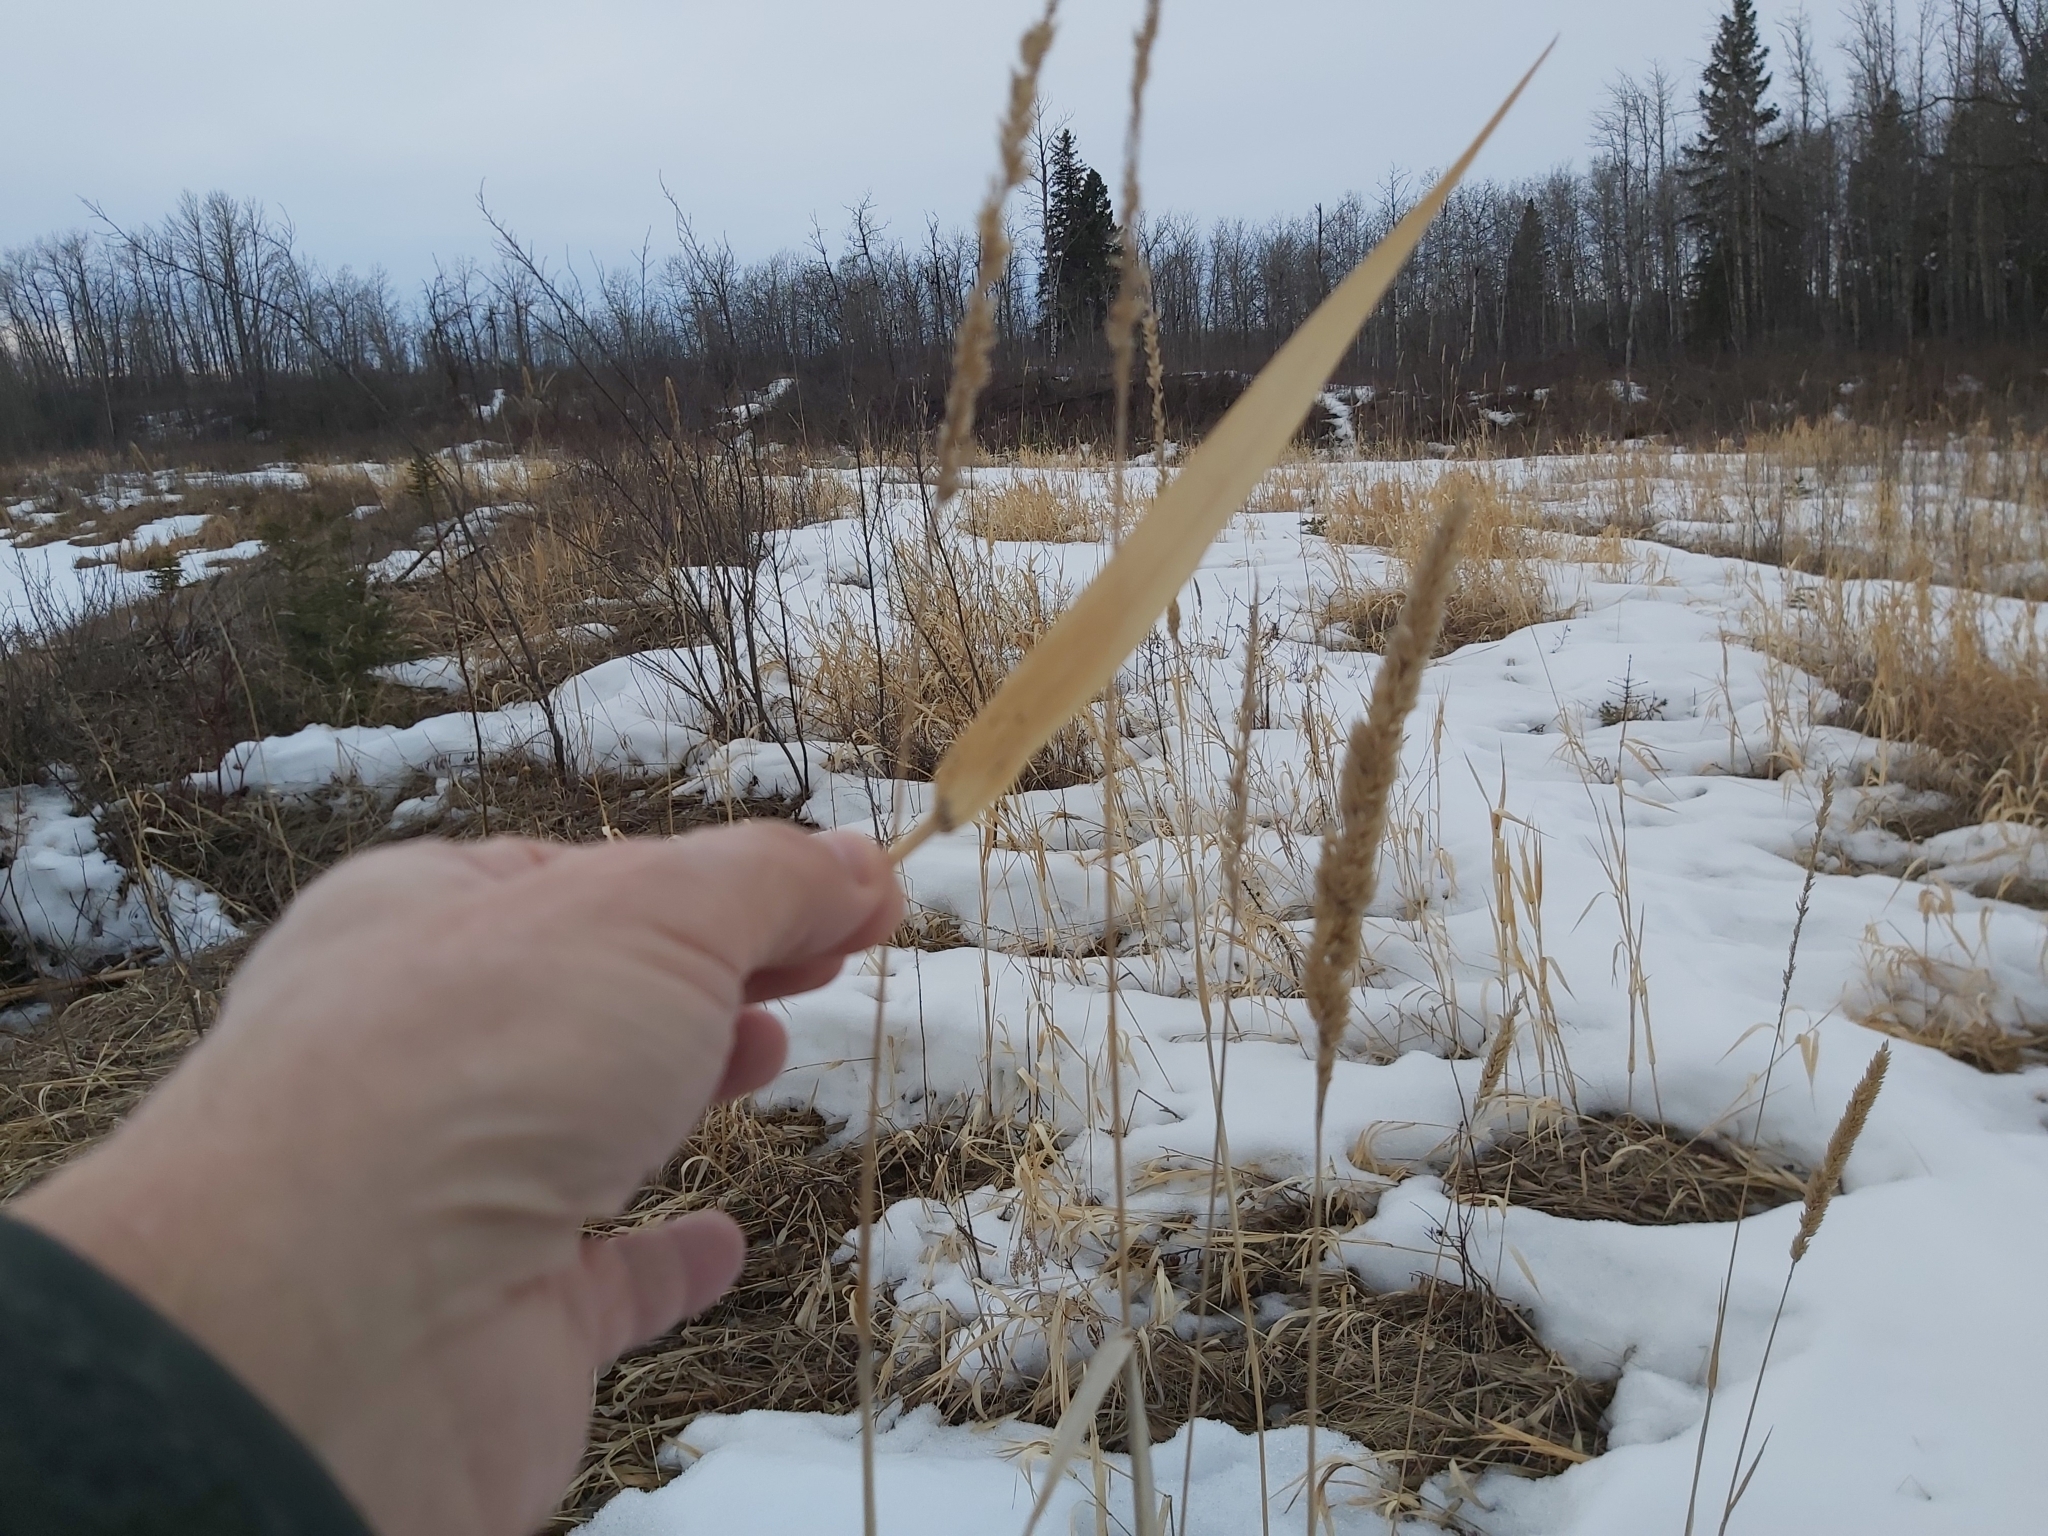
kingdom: Plantae
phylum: Tracheophyta
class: Liliopsida
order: Poales
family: Poaceae
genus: Phalaris
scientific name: Phalaris arundinacea
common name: Reed canary-grass
